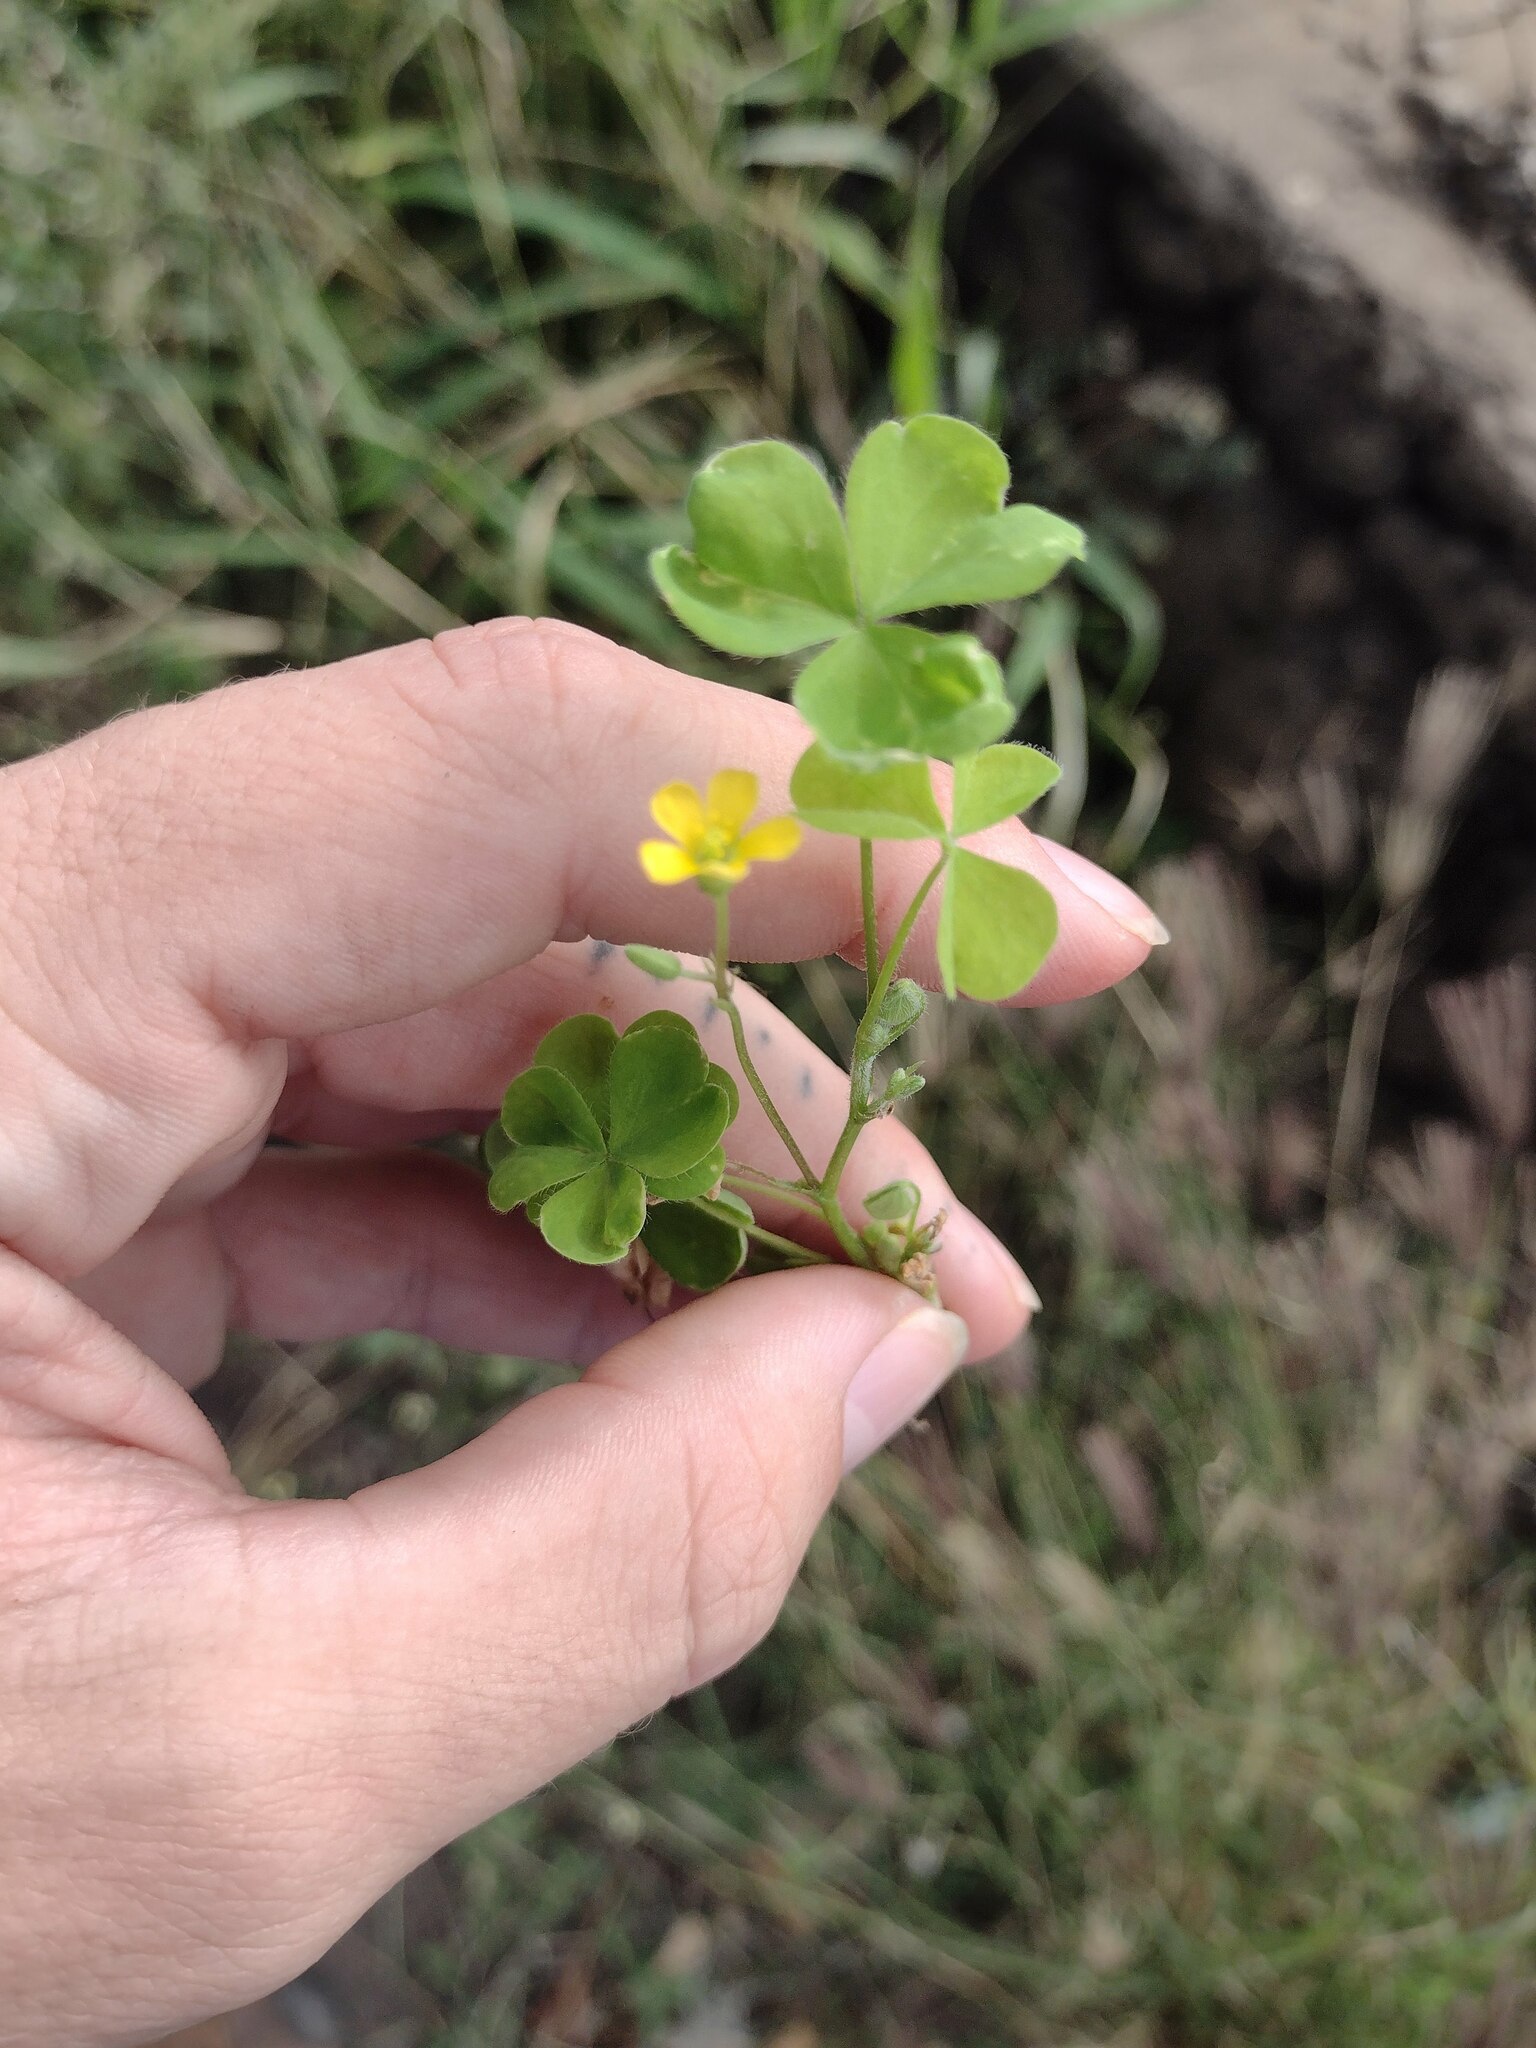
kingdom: Plantae
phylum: Tracheophyta
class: Magnoliopsida
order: Oxalidales
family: Oxalidaceae
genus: Oxalis
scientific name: Oxalis corniculata
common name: Procumbent yellow-sorrel
